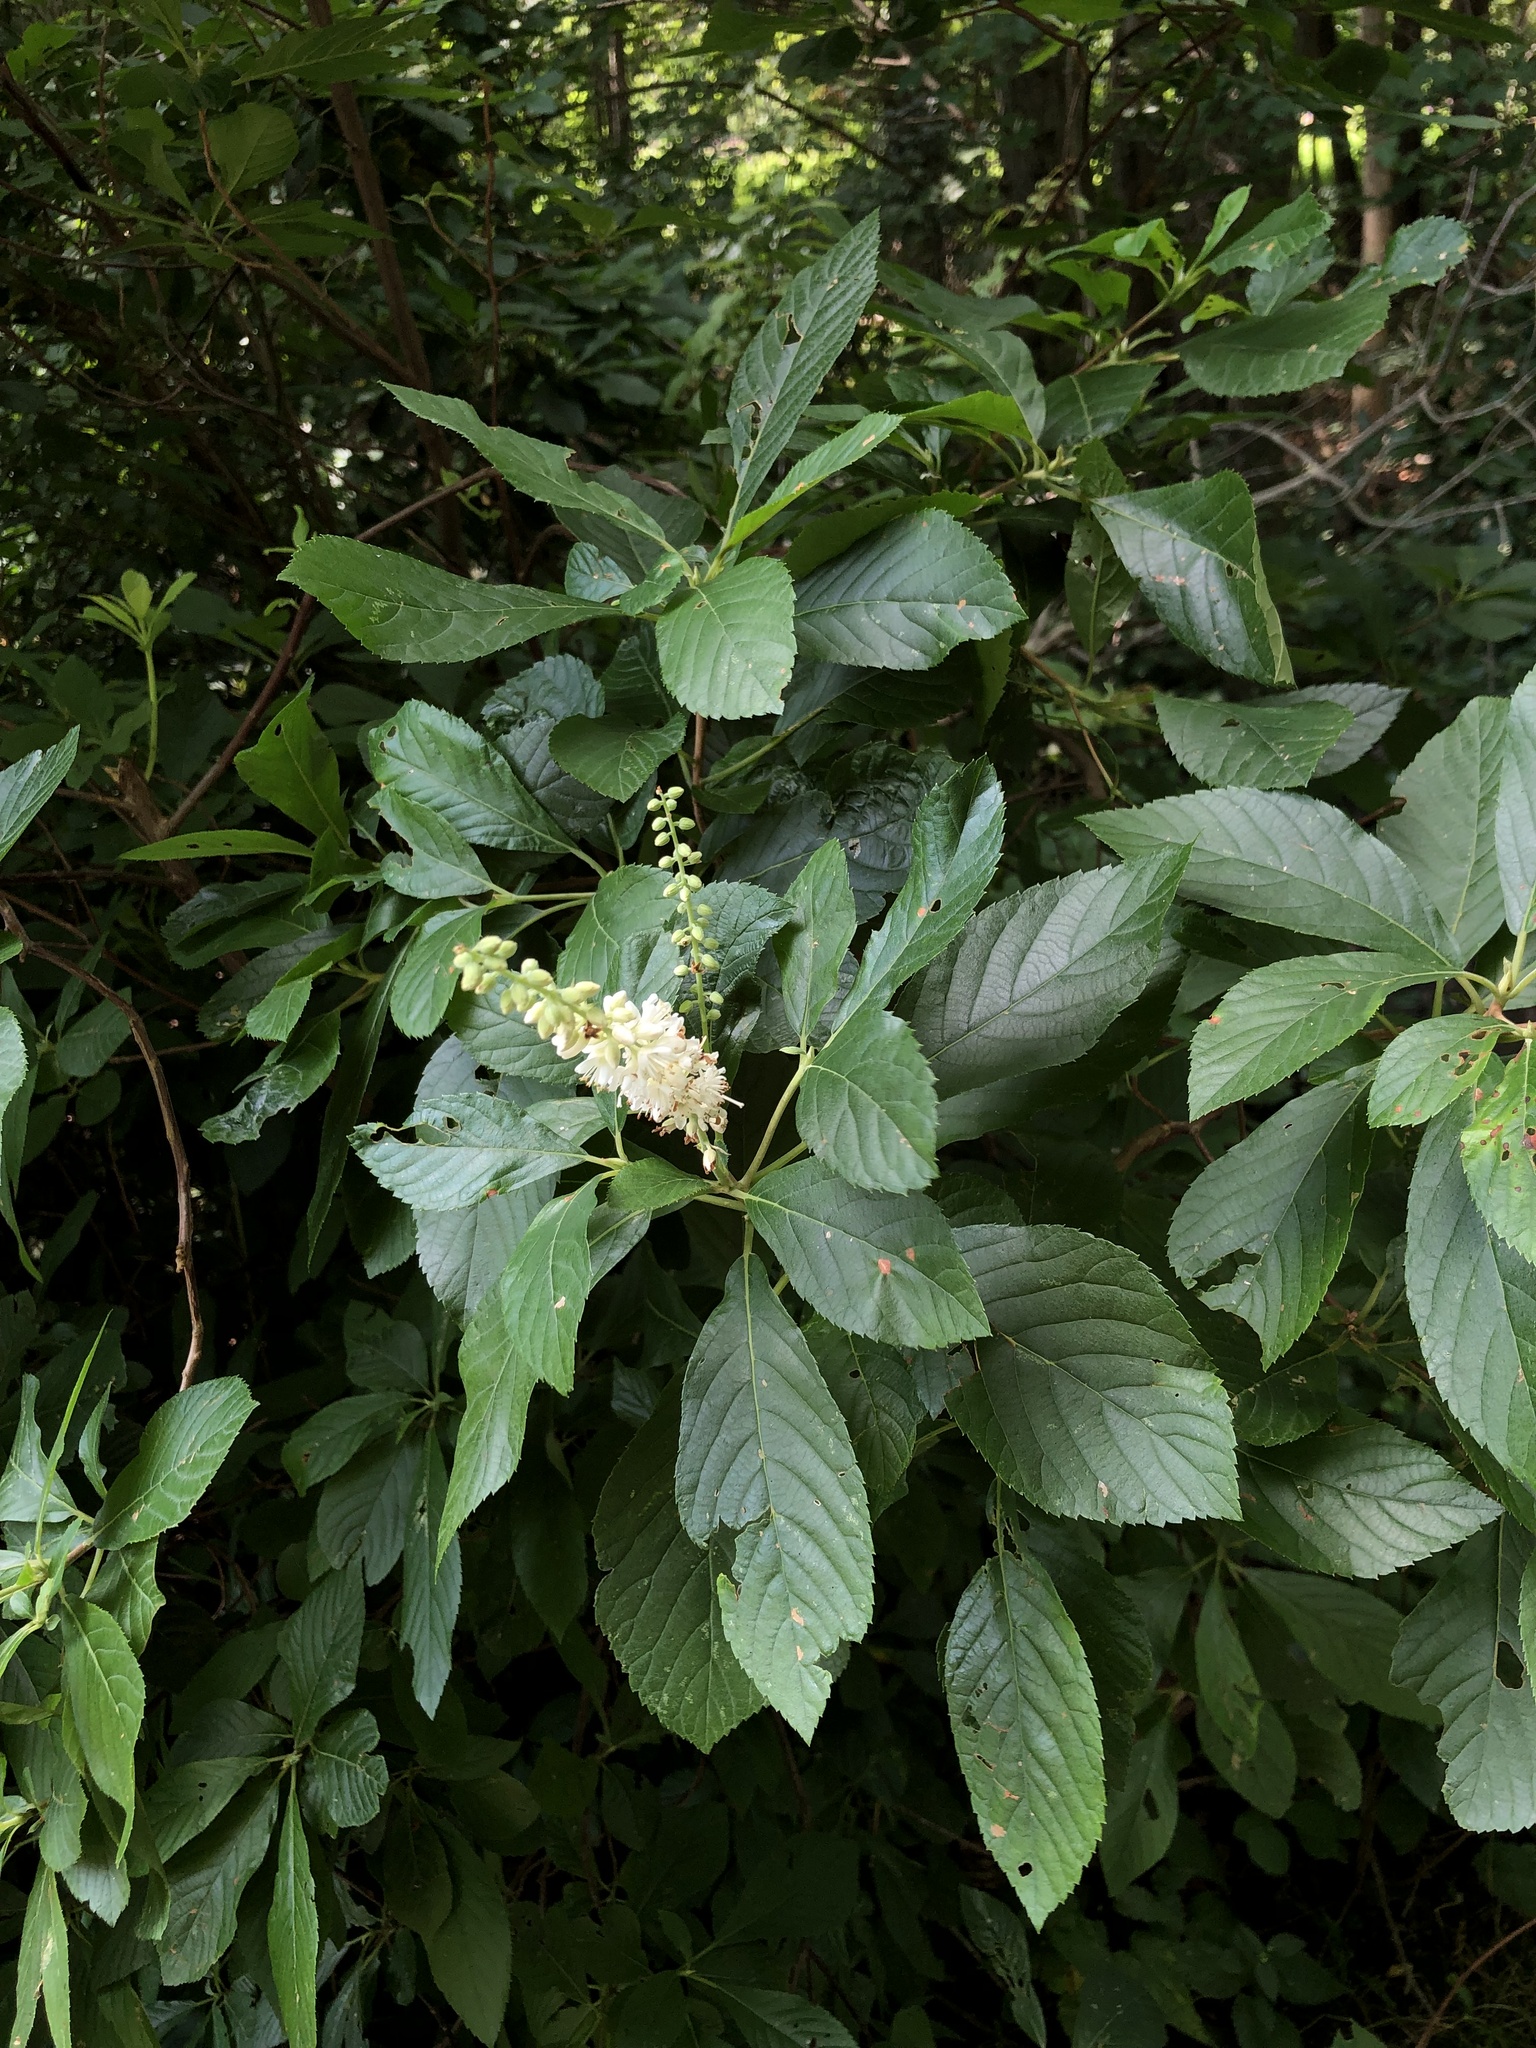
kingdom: Plantae
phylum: Tracheophyta
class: Magnoliopsida
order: Ericales
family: Clethraceae
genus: Clethra
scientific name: Clethra alnifolia
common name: Sweet pepperbush
